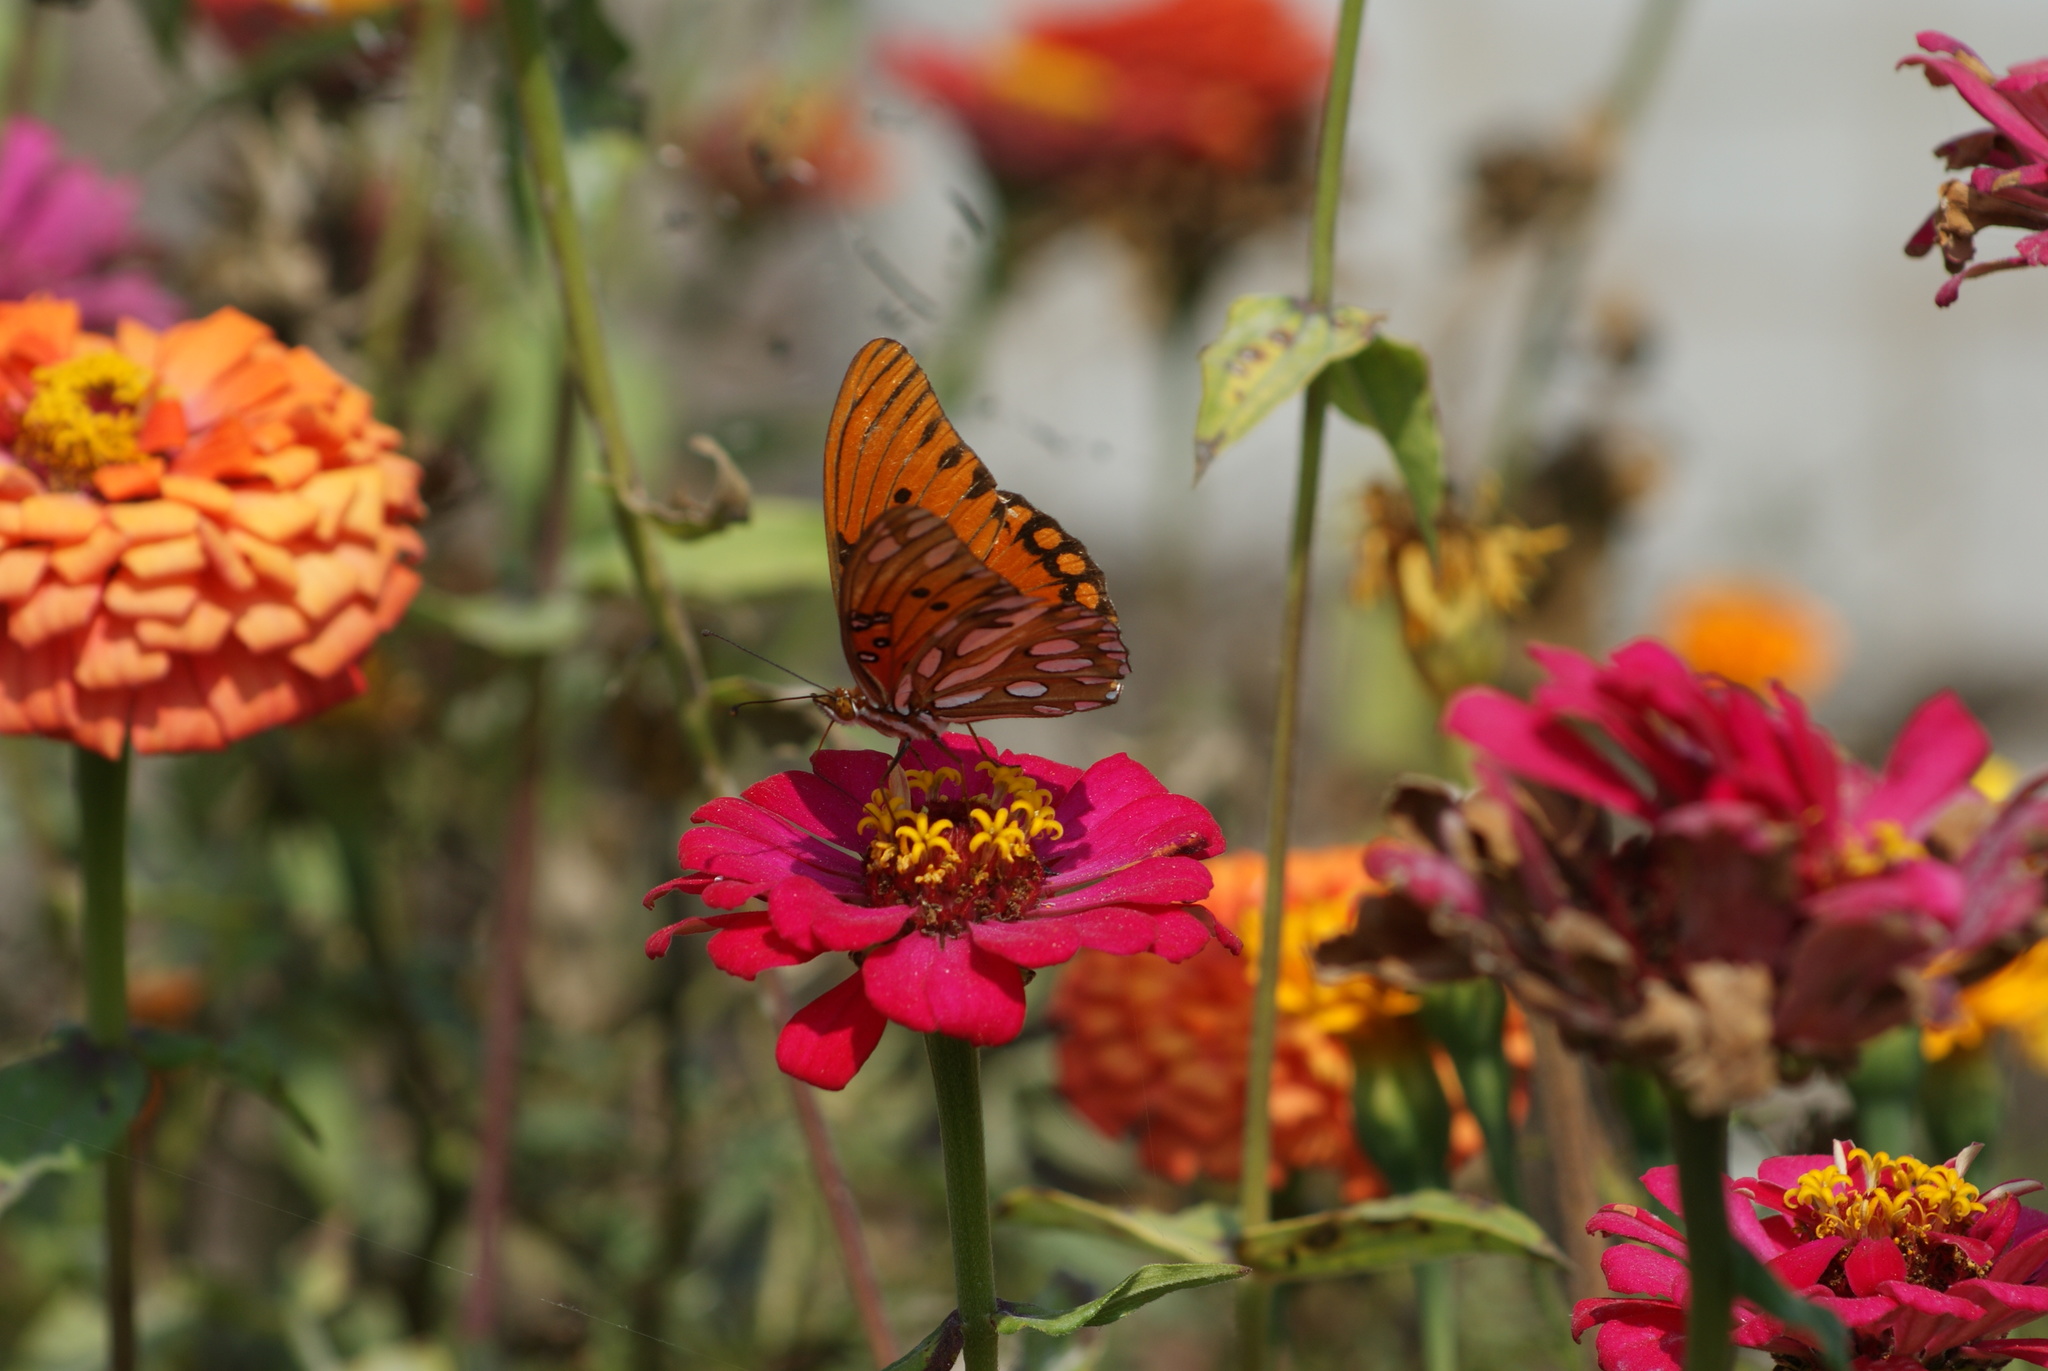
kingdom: Animalia
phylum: Arthropoda
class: Insecta
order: Lepidoptera
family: Nymphalidae
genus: Dione
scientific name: Dione vanillae
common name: Gulf fritillary
